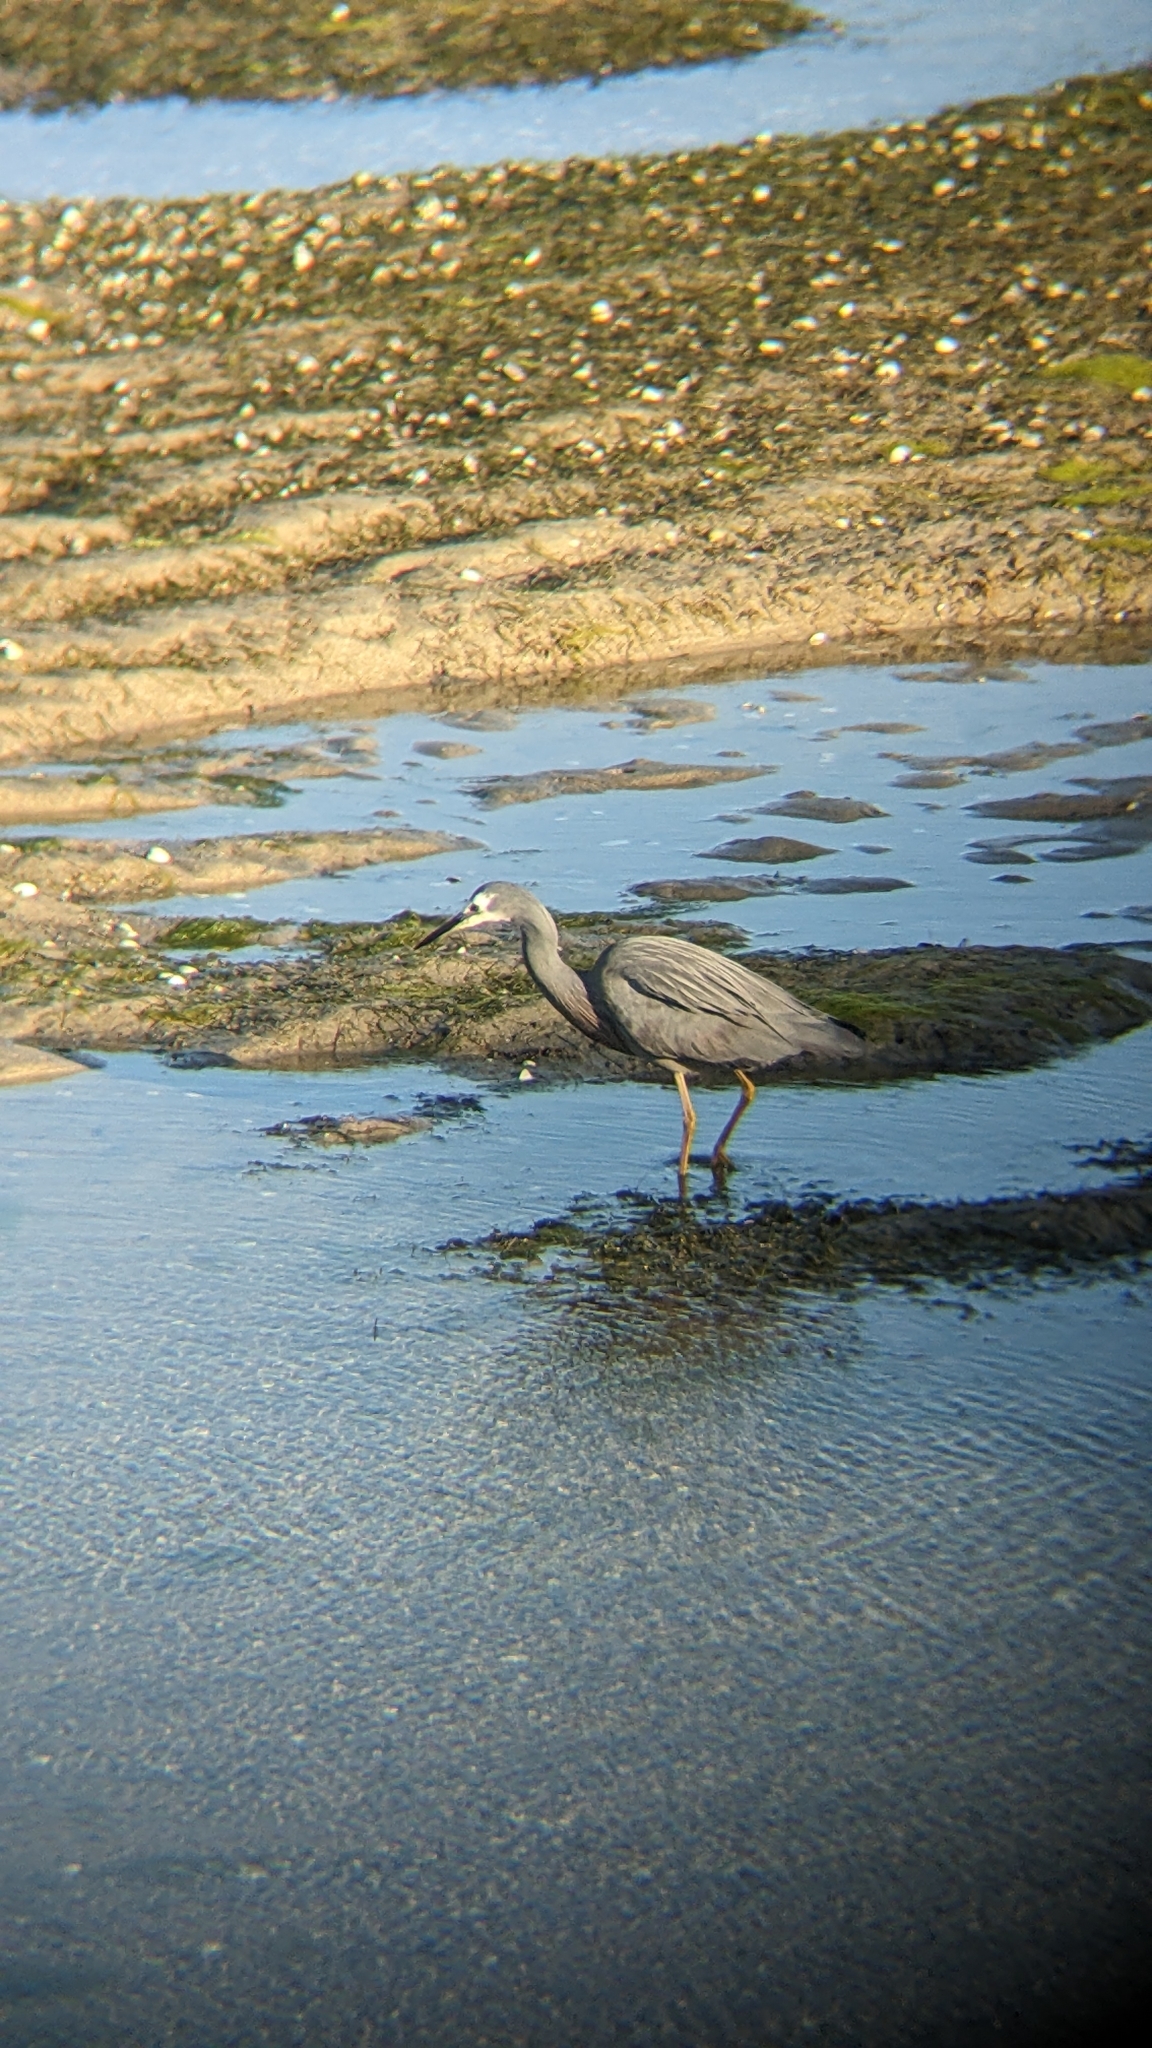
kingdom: Animalia
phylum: Chordata
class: Aves
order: Pelecaniformes
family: Ardeidae
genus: Egretta
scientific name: Egretta novaehollandiae
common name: White-faced heron
